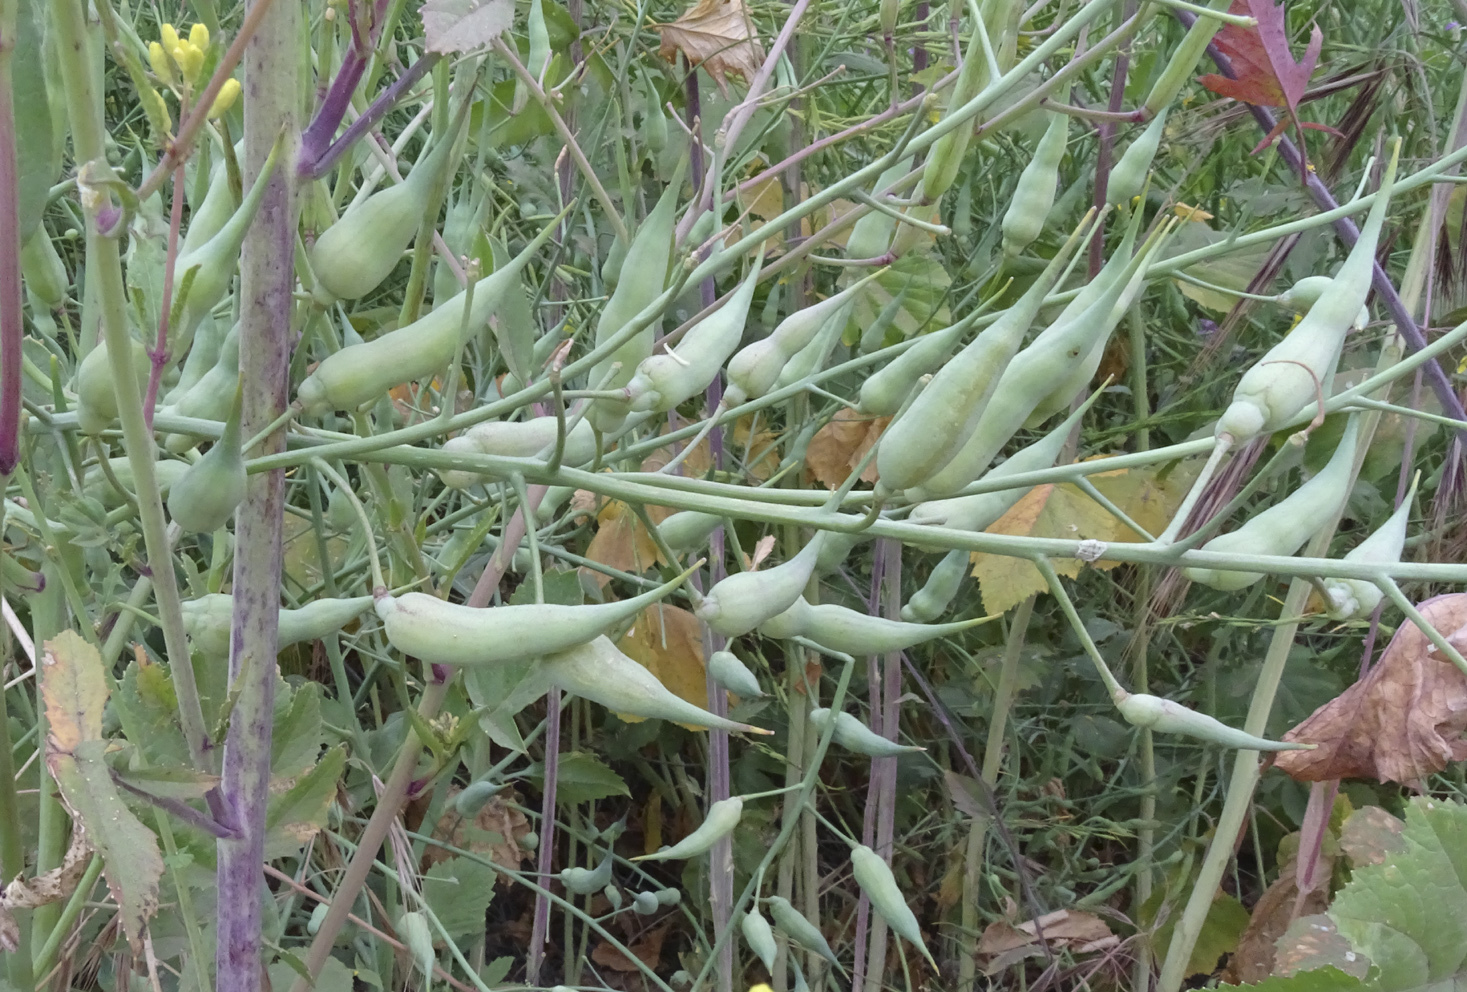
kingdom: Plantae
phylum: Tracheophyta
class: Magnoliopsida
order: Brassicales
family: Brassicaceae
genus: Raphanus
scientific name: Raphanus sativus
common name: Cultivated radish
